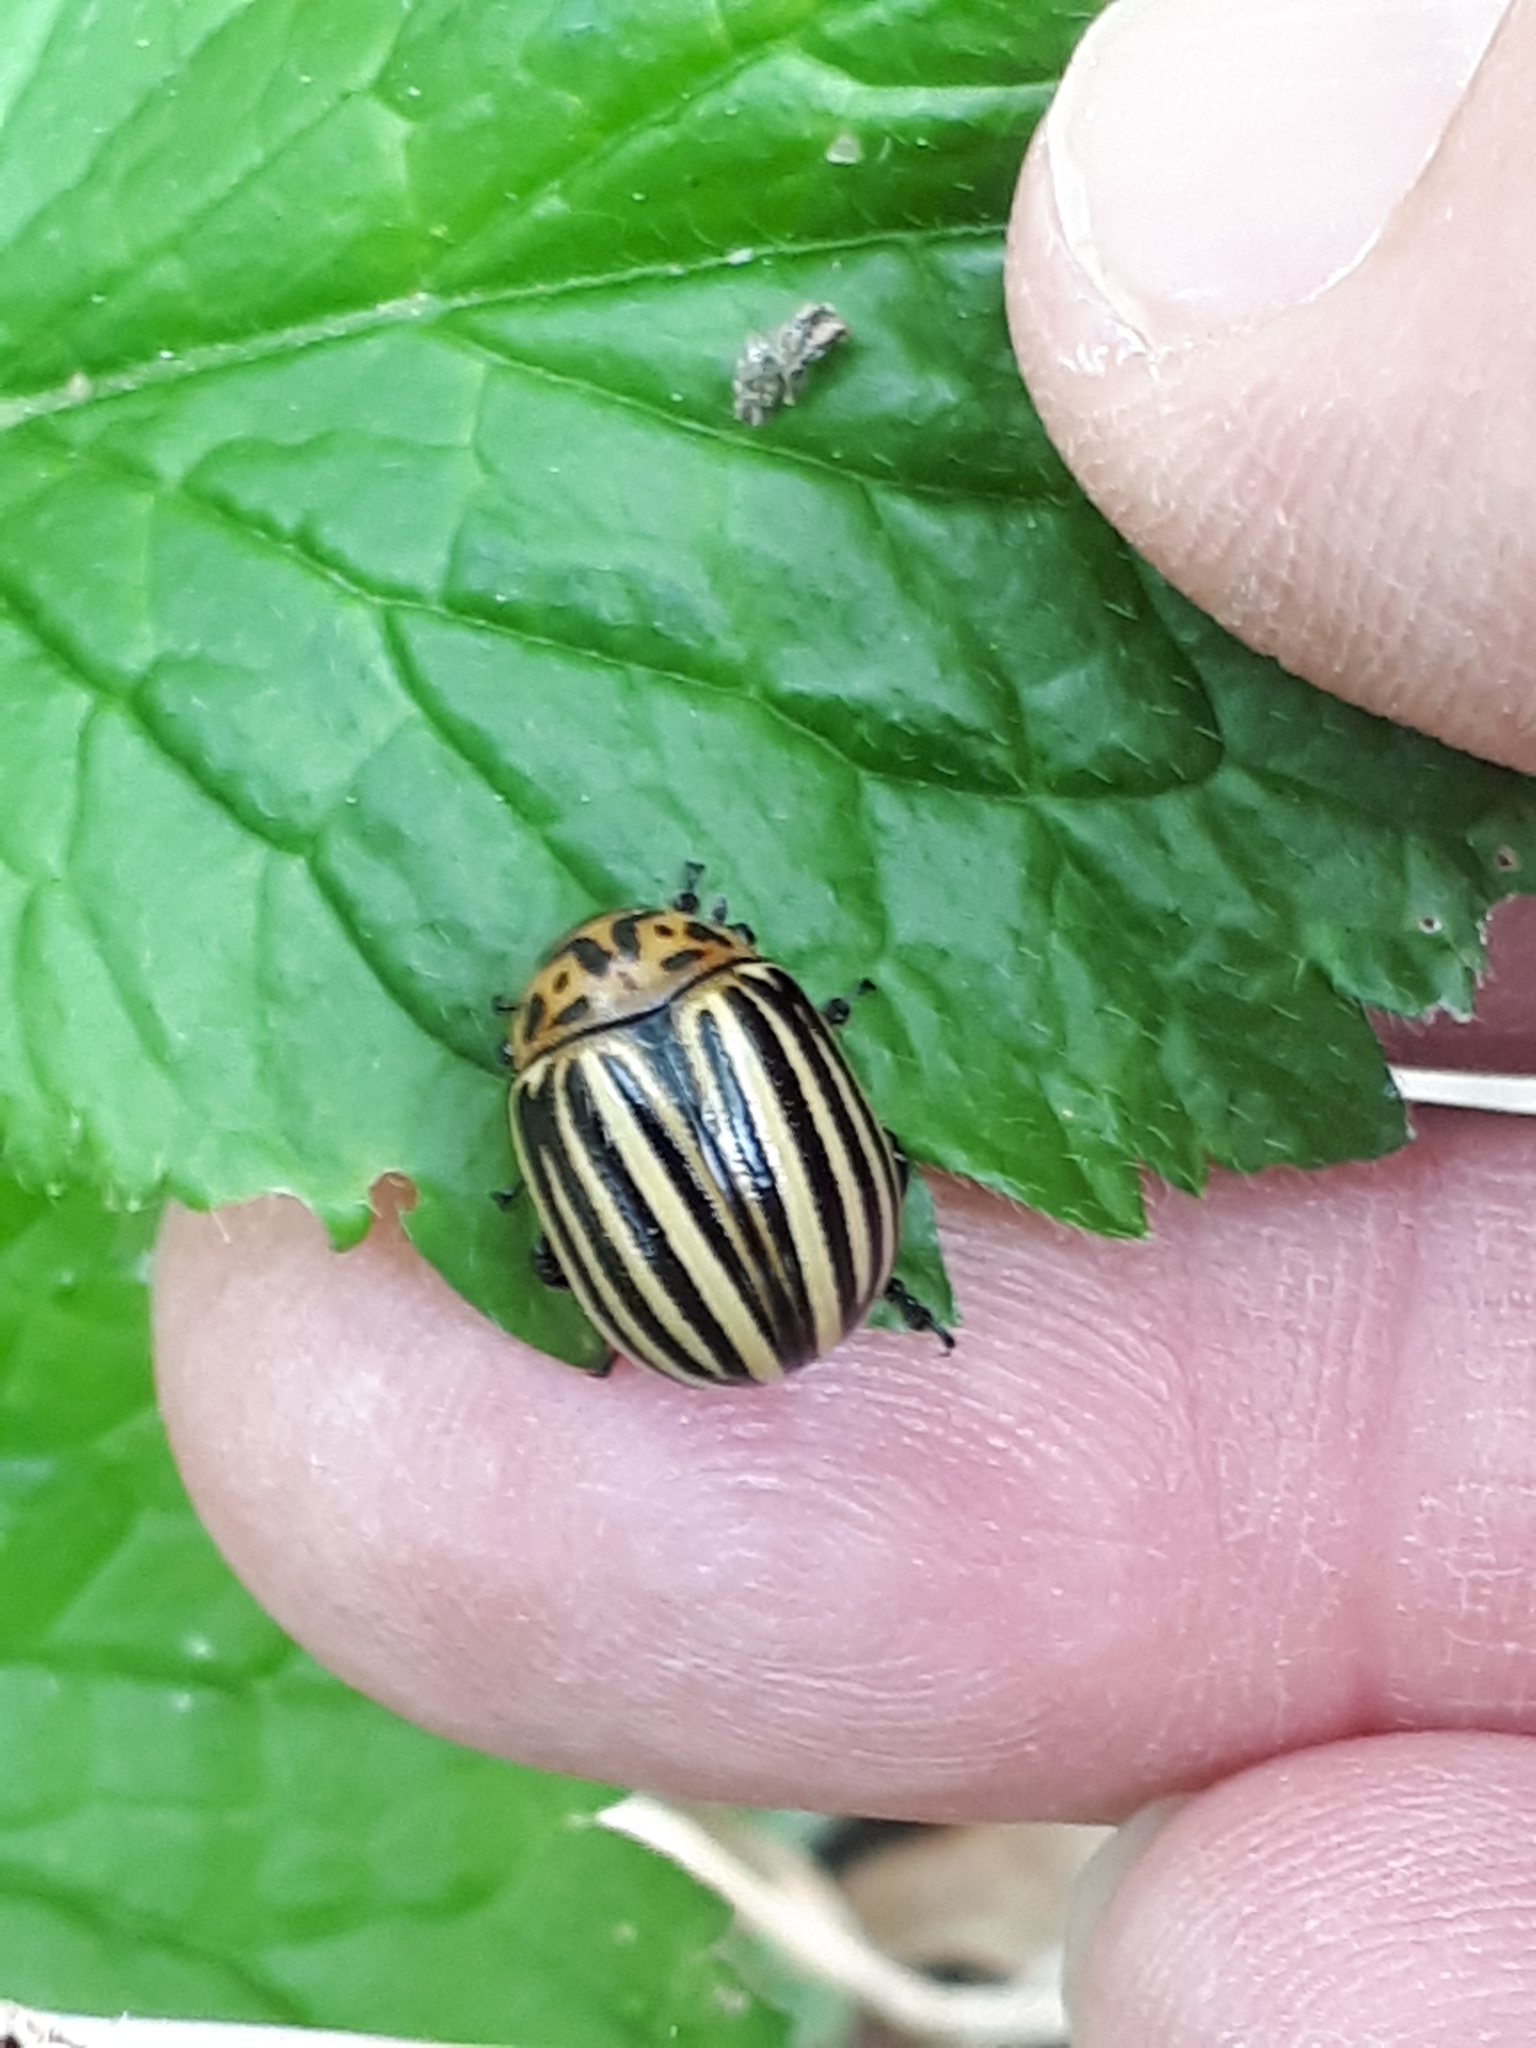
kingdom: Animalia
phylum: Arthropoda
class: Insecta
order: Coleoptera
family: Chrysomelidae
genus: Leptinotarsa
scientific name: Leptinotarsa decemlineata
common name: Colorado potato beetle
